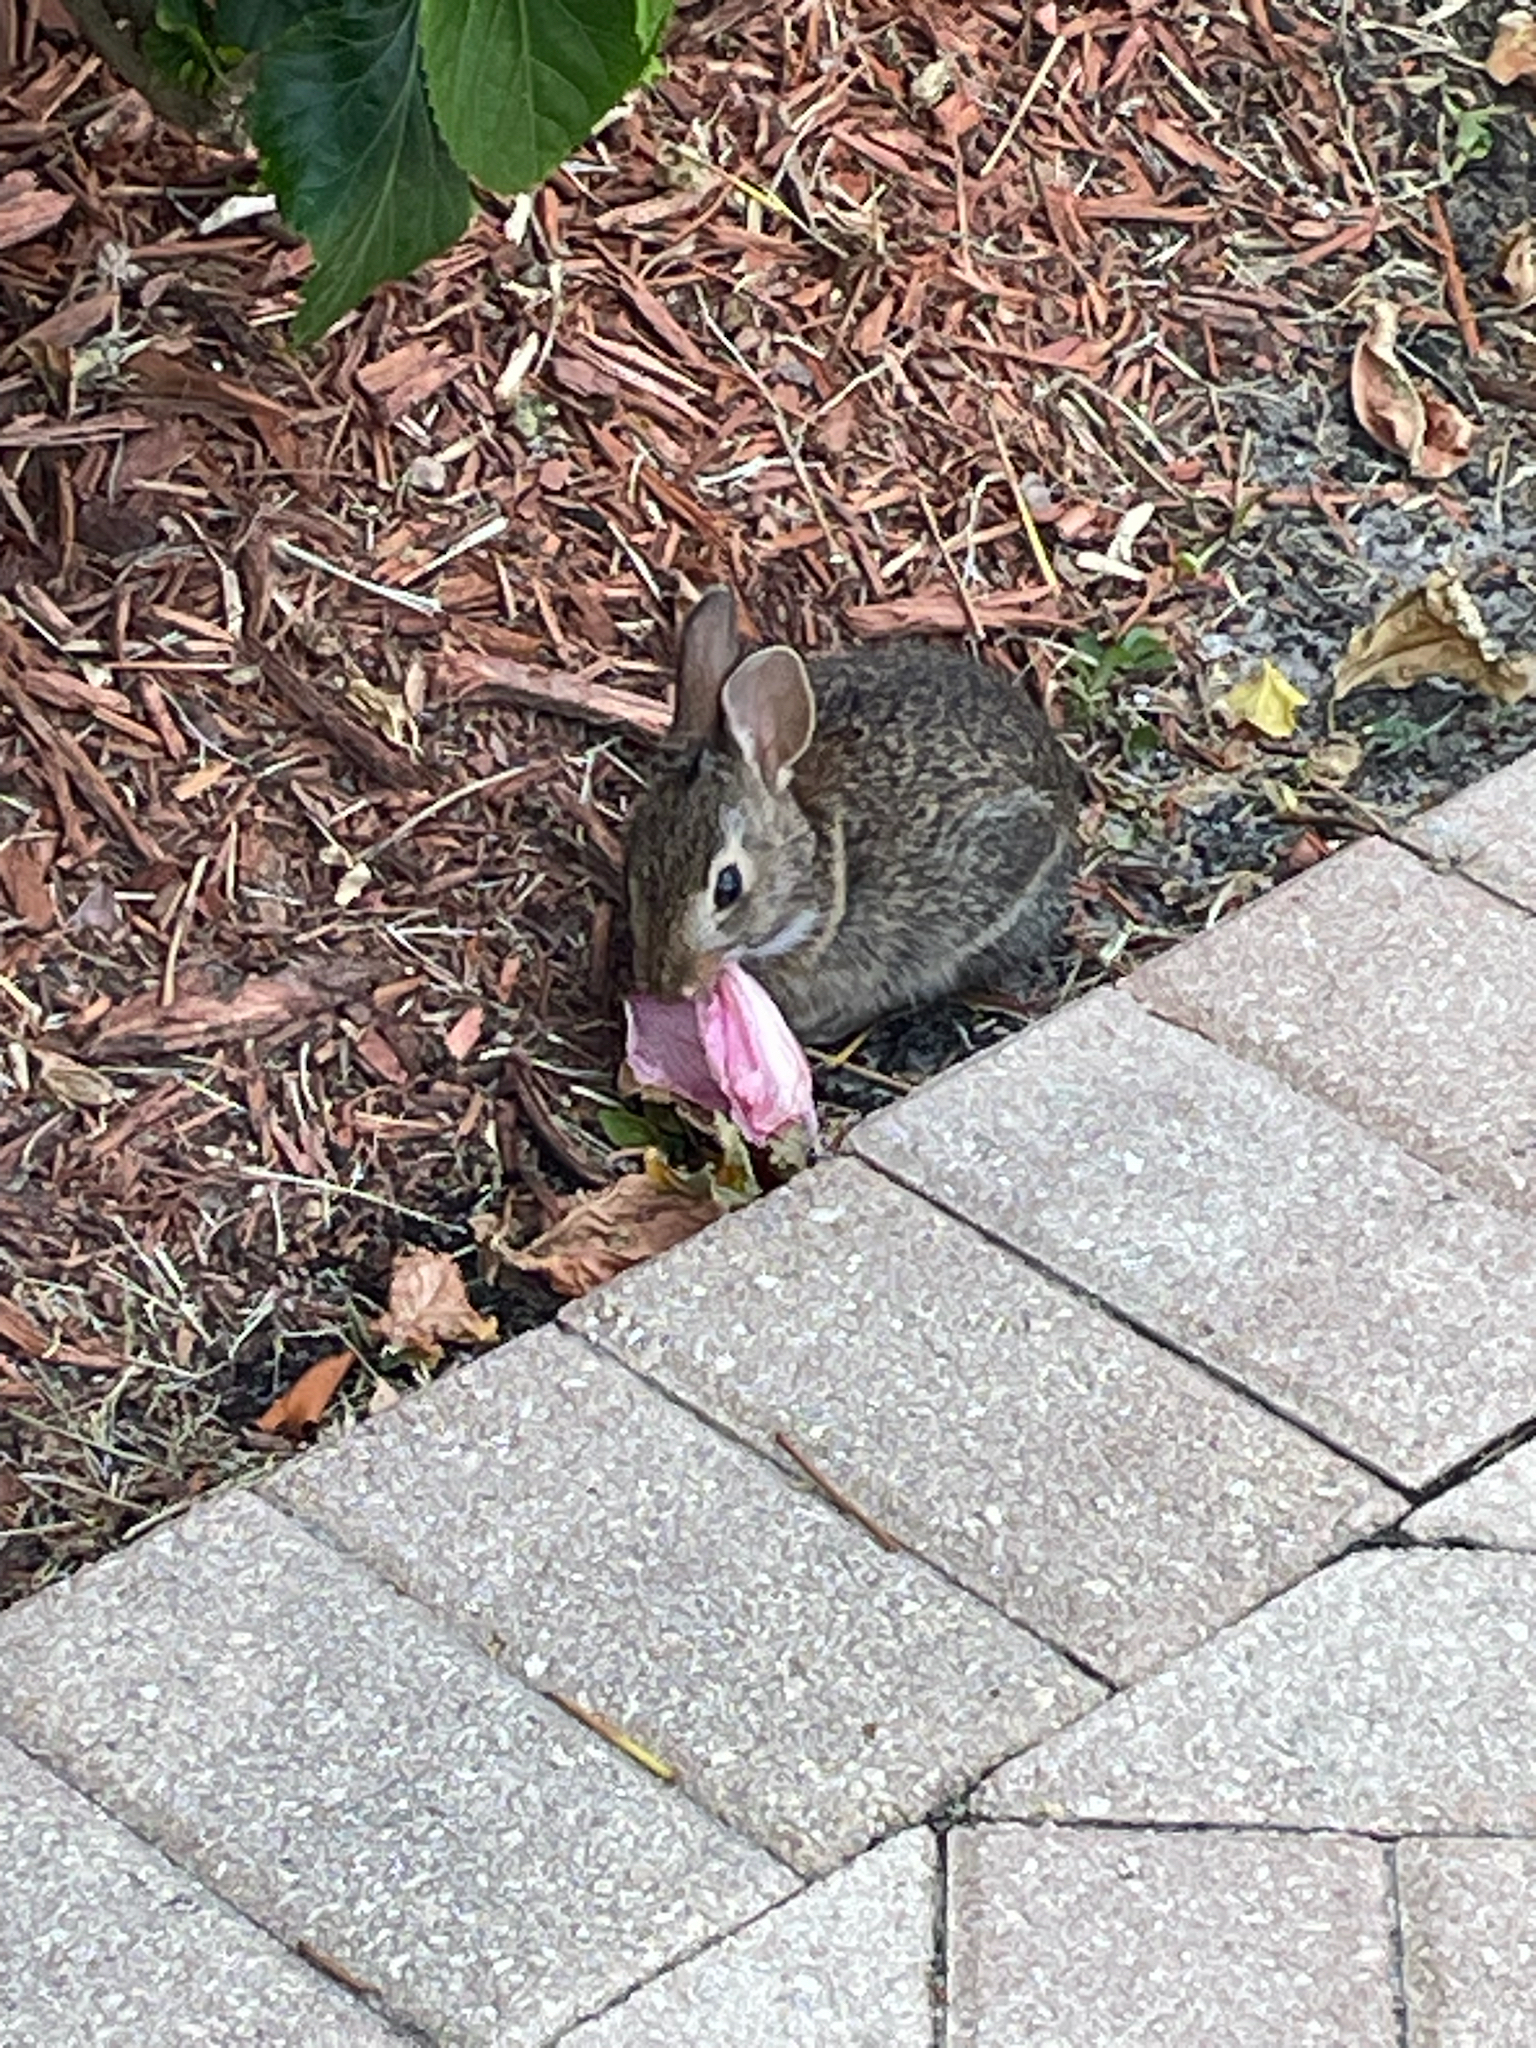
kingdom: Animalia
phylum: Chordata
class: Mammalia
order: Lagomorpha
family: Leporidae
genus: Sylvilagus
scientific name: Sylvilagus palustris
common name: Marsh rabbit
